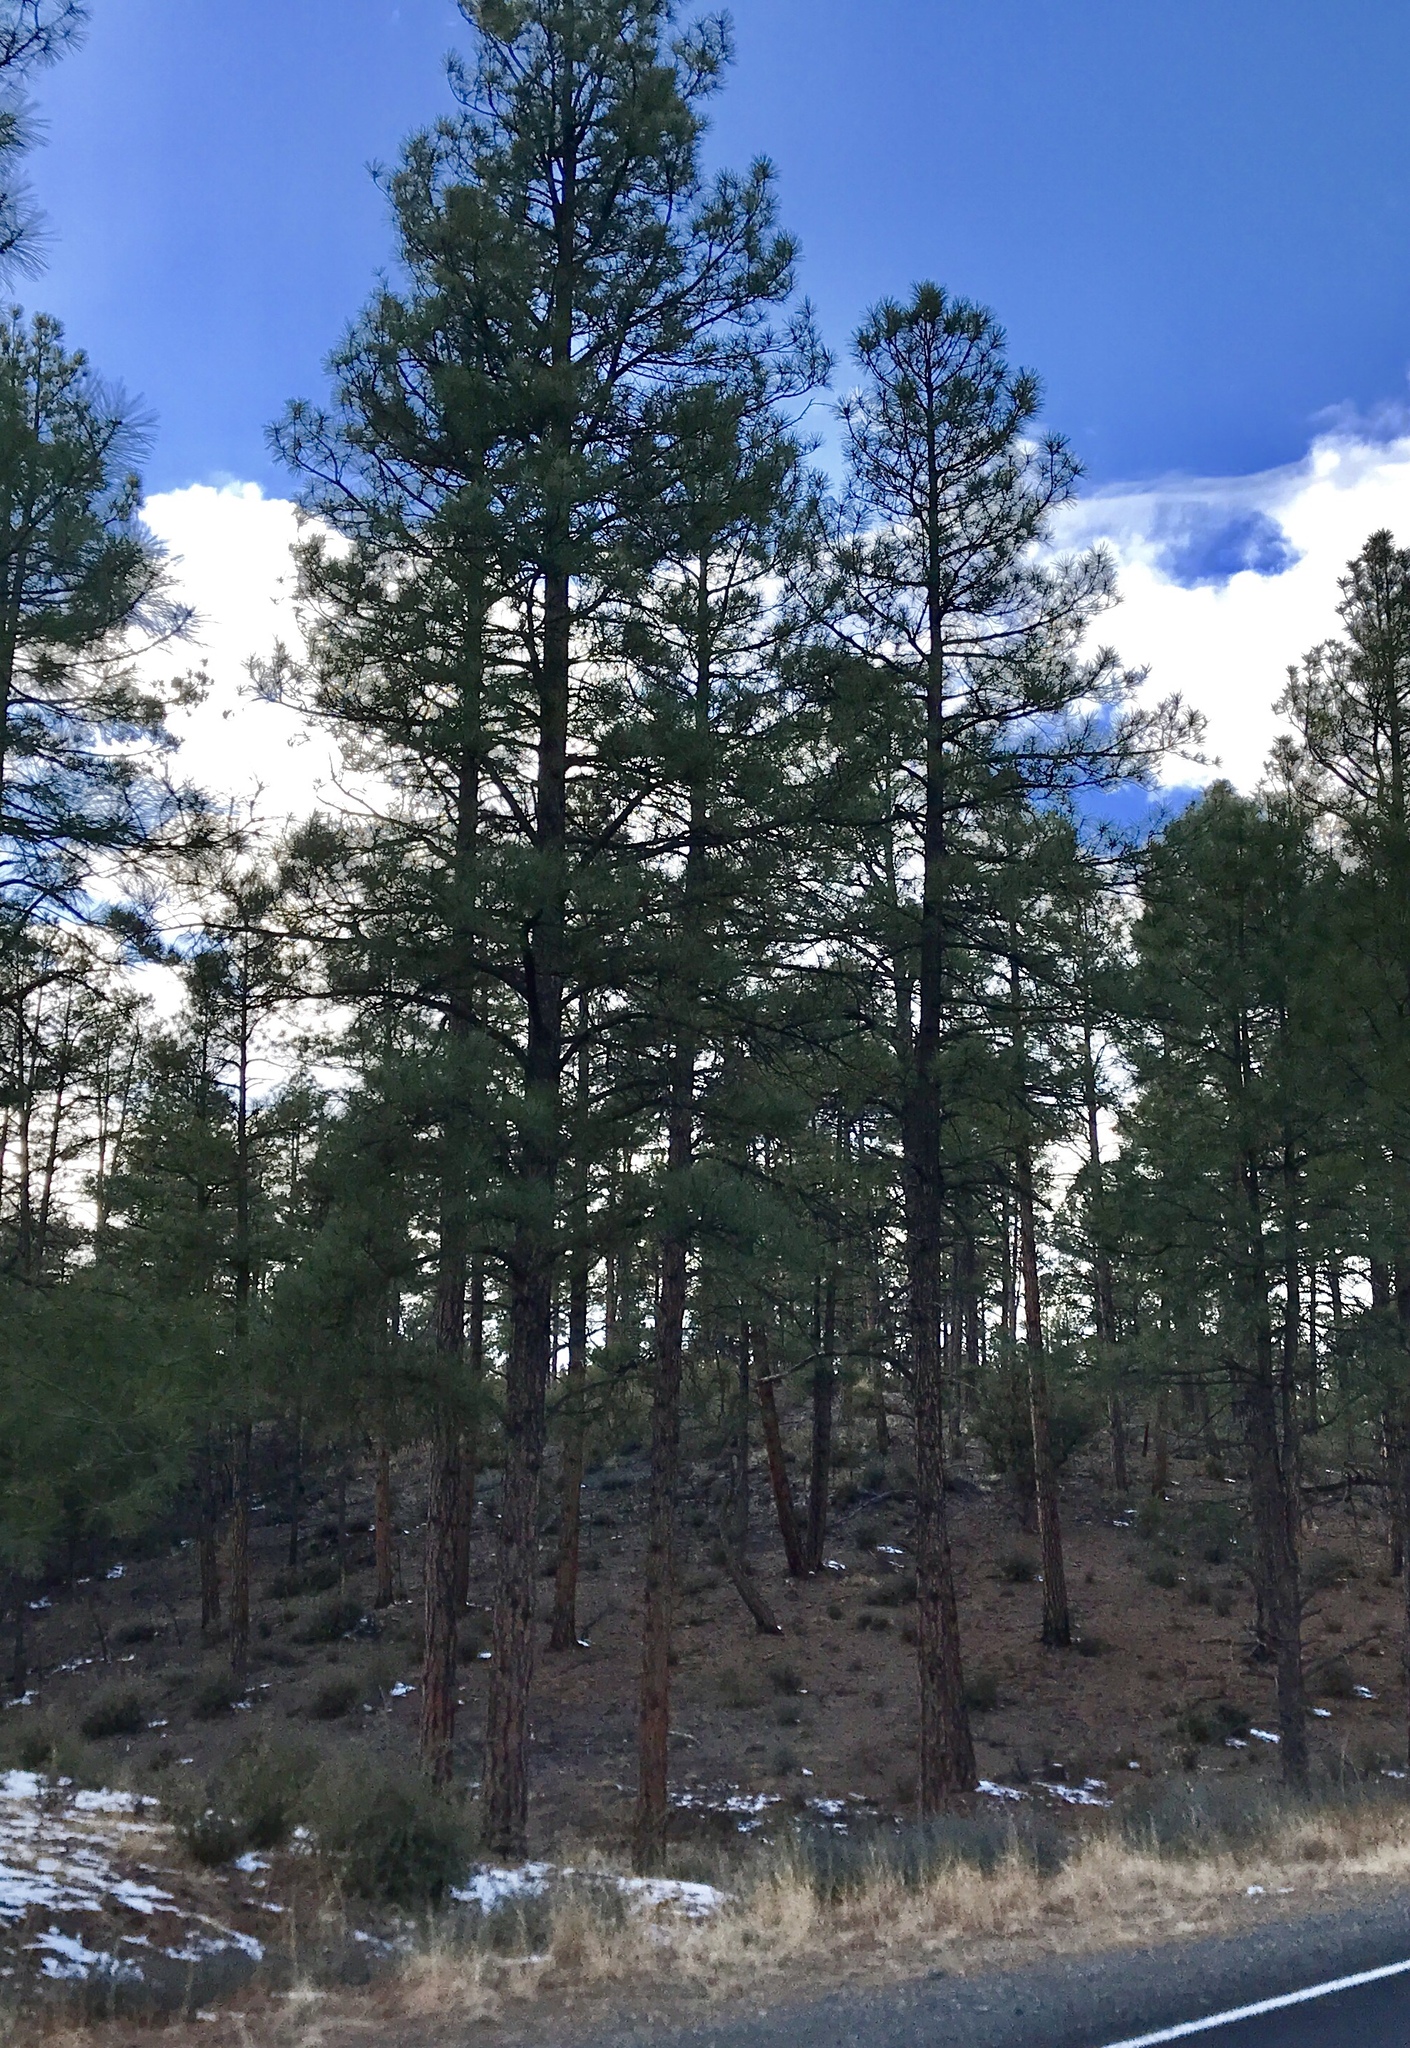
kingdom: Plantae
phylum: Tracheophyta
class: Pinopsida
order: Pinales
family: Pinaceae
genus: Pinus
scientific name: Pinus ponderosa
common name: Western yellow-pine
